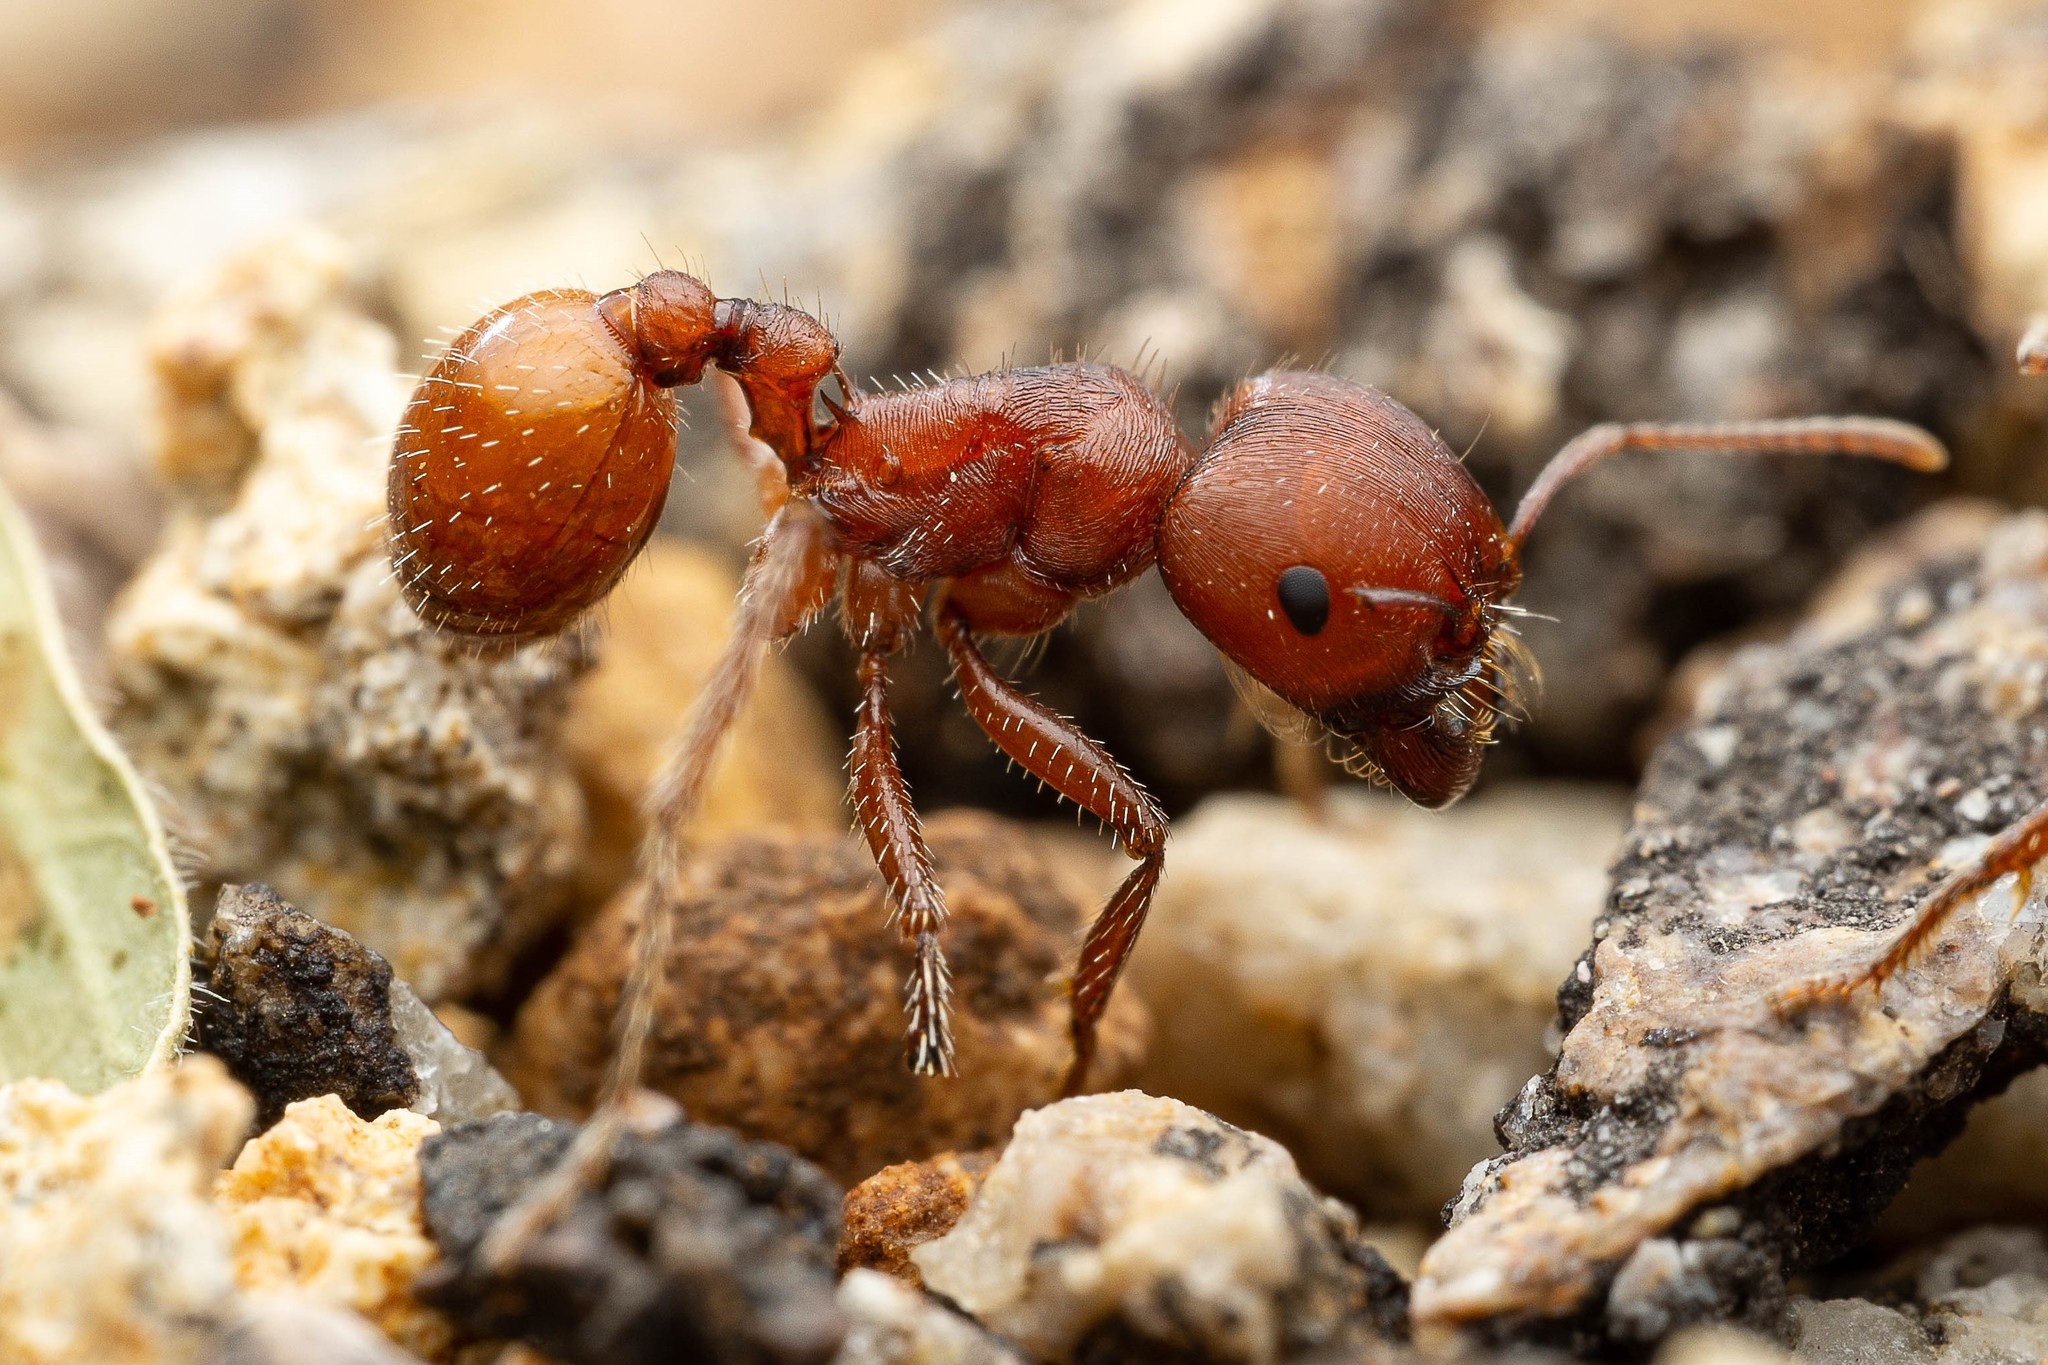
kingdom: Animalia
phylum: Arthropoda
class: Insecta
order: Hymenoptera
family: Formicidae
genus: Pogonomyrmex
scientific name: Pogonomyrmex barbatus
